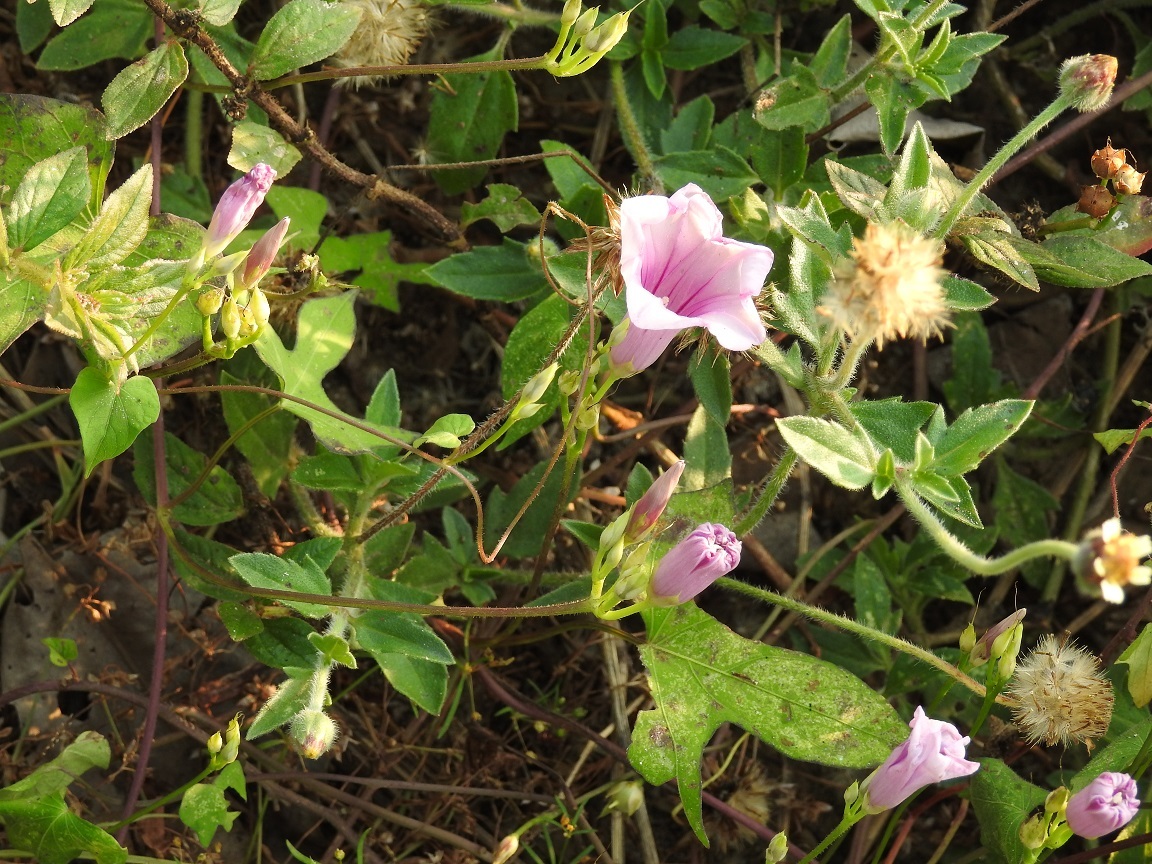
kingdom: Plantae
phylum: Tracheophyta
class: Magnoliopsida
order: Solanales
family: Convolvulaceae
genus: Ipomoea
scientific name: Ipomoea trifida
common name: Cotton morningglory
